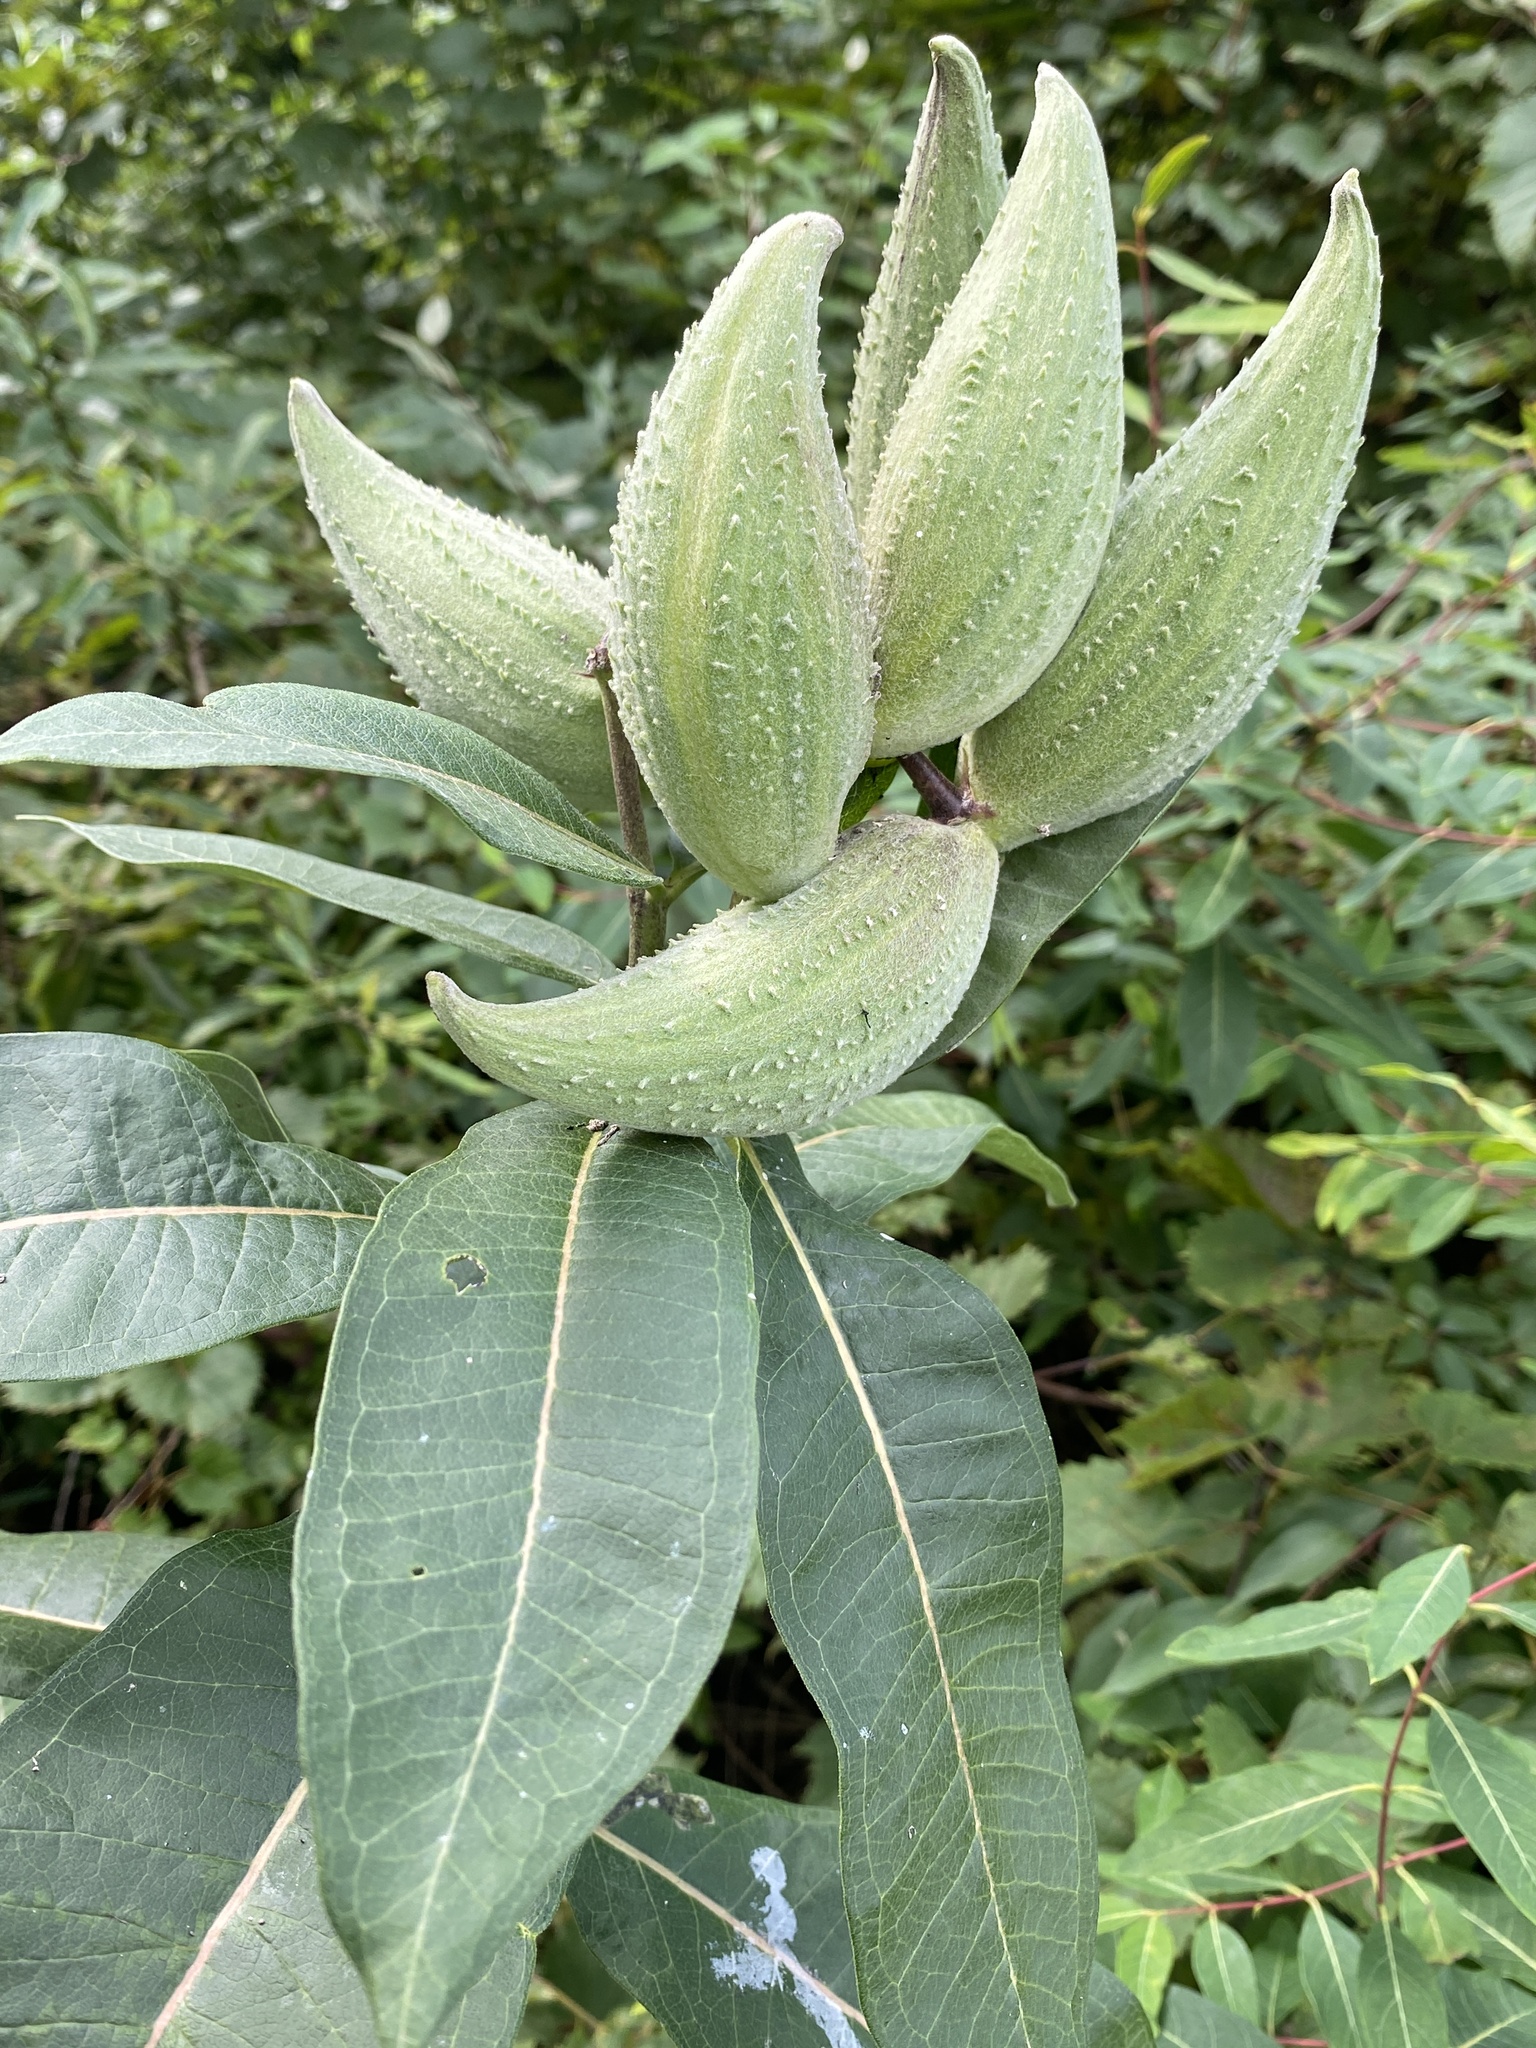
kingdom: Plantae
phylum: Tracheophyta
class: Magnoliopsida
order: Gentianales
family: Apocynaceae
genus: Asclepias
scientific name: Asclepias syriaca
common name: Common milkweed
